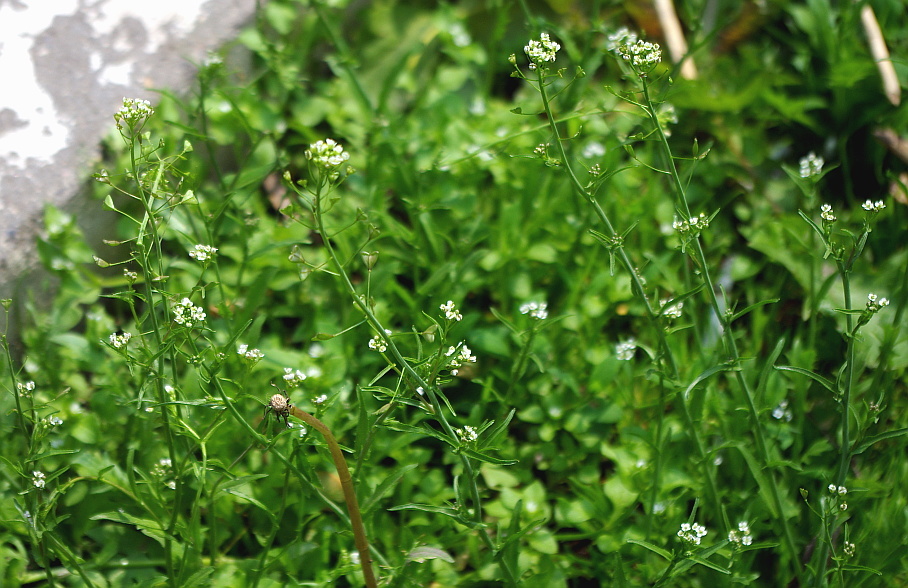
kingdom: Plantae
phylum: Tracheophyta
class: Magnoliopsida
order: Brassicales
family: Brassicaceae
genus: Capsella
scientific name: Capsella bursa-pastoris
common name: Shepherd's purse
